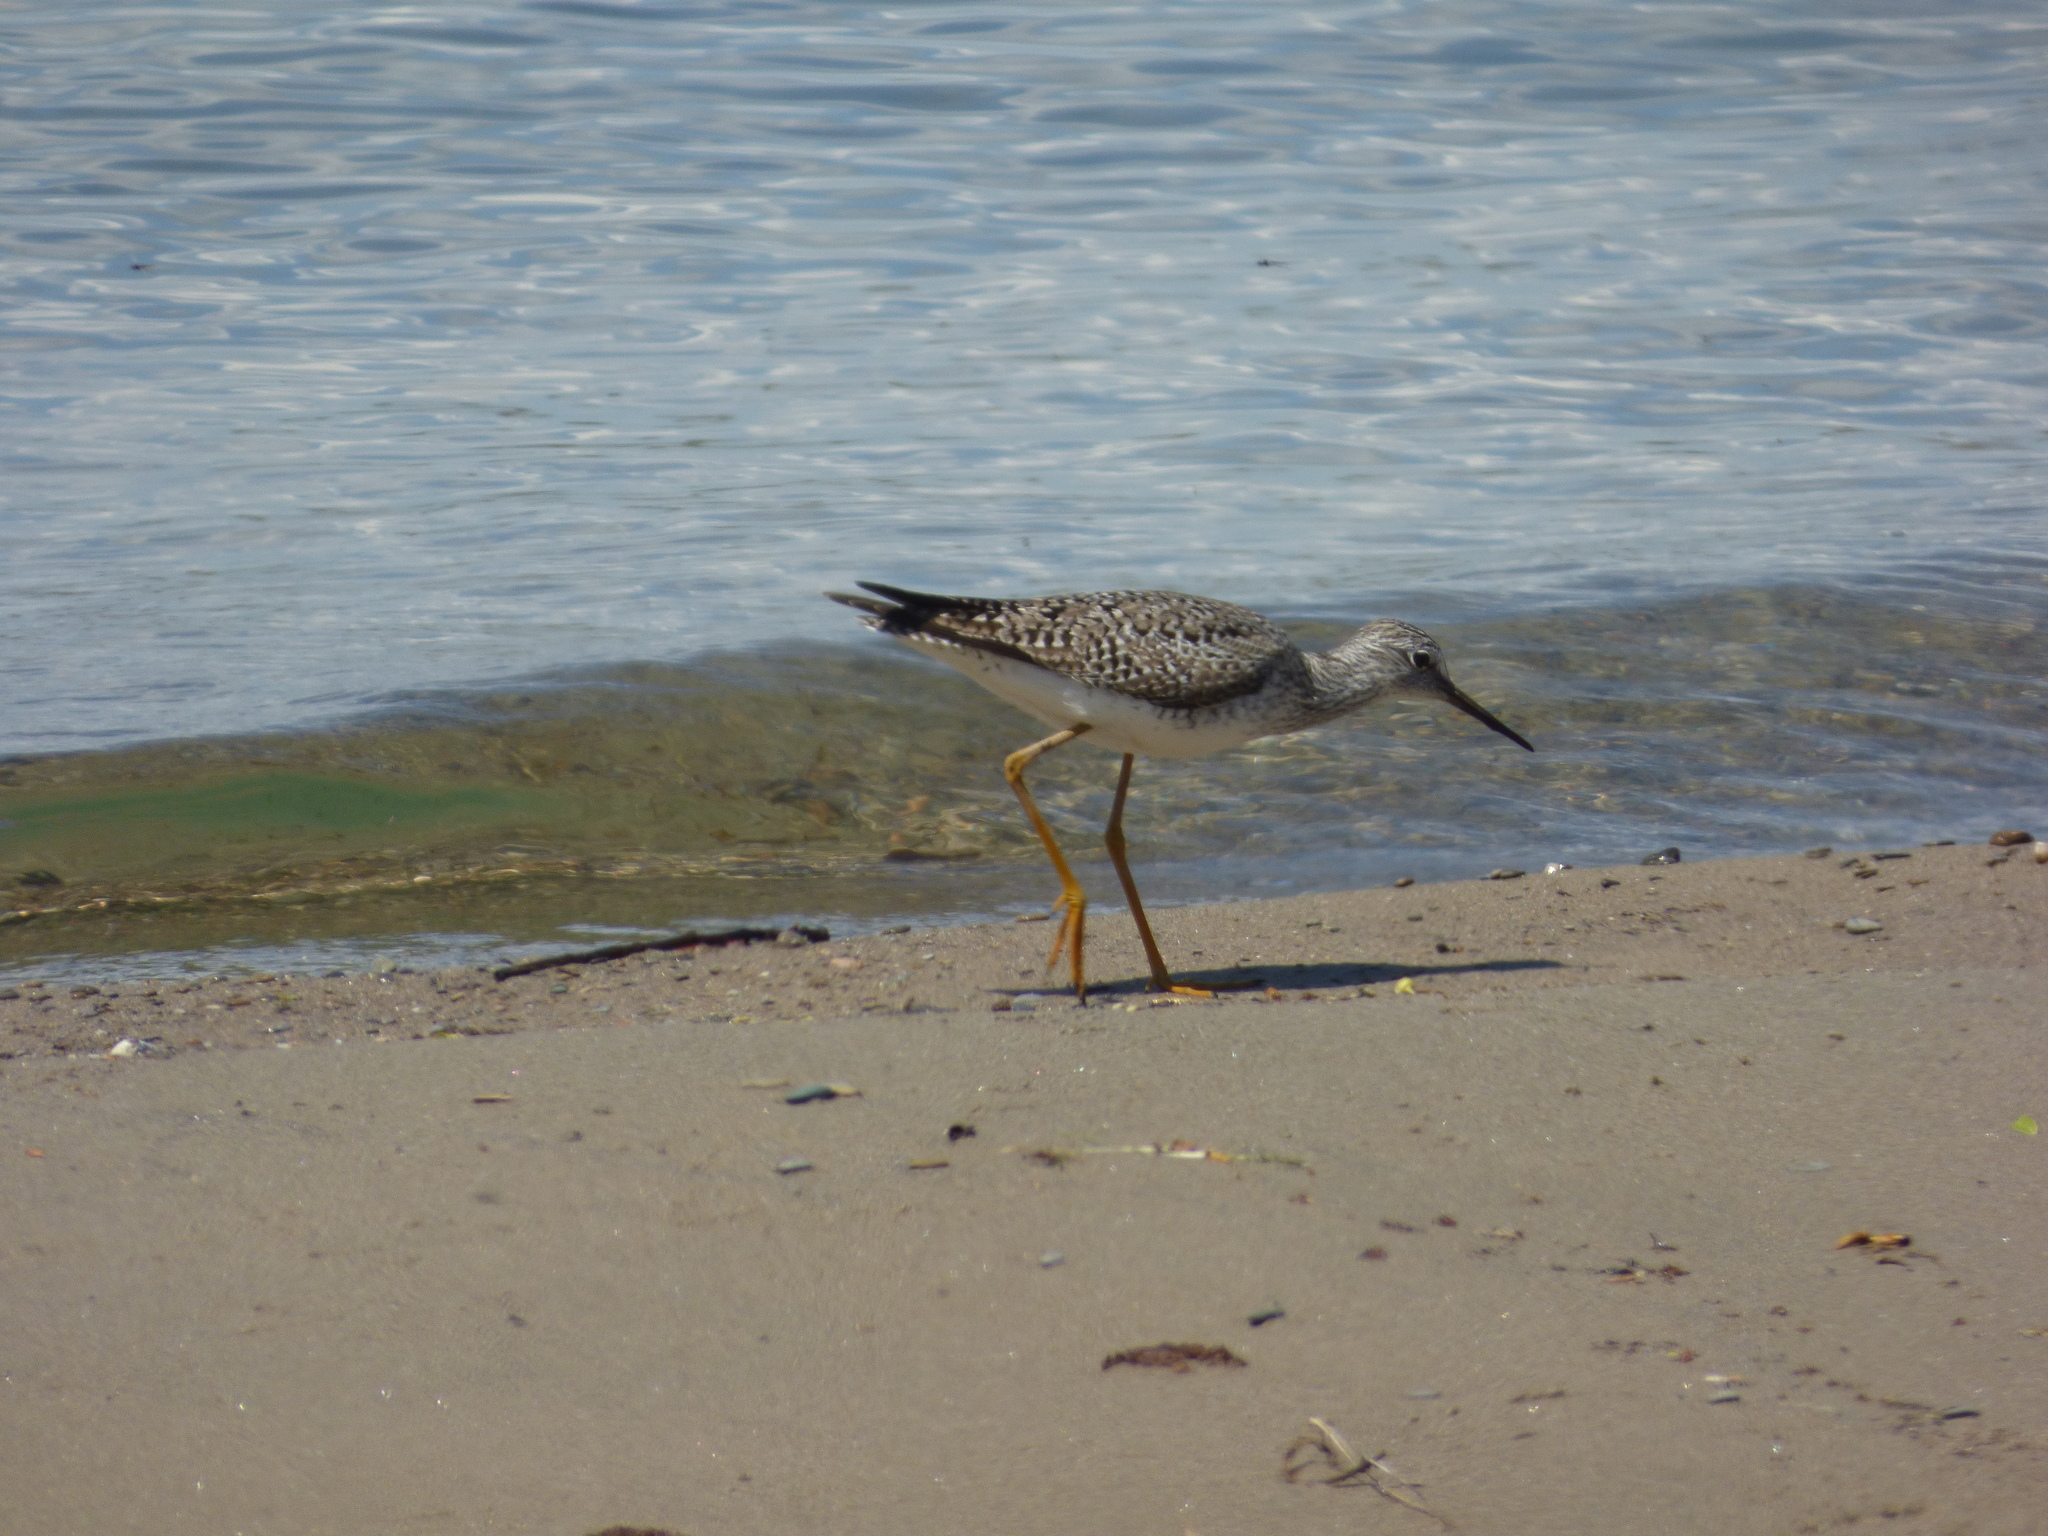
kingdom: Animalia
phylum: Chordata
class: Aves
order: Charadriiformes
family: Scolopacidae
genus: Tringa
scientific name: Tringa flavipes
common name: Lesser yellowlegs
